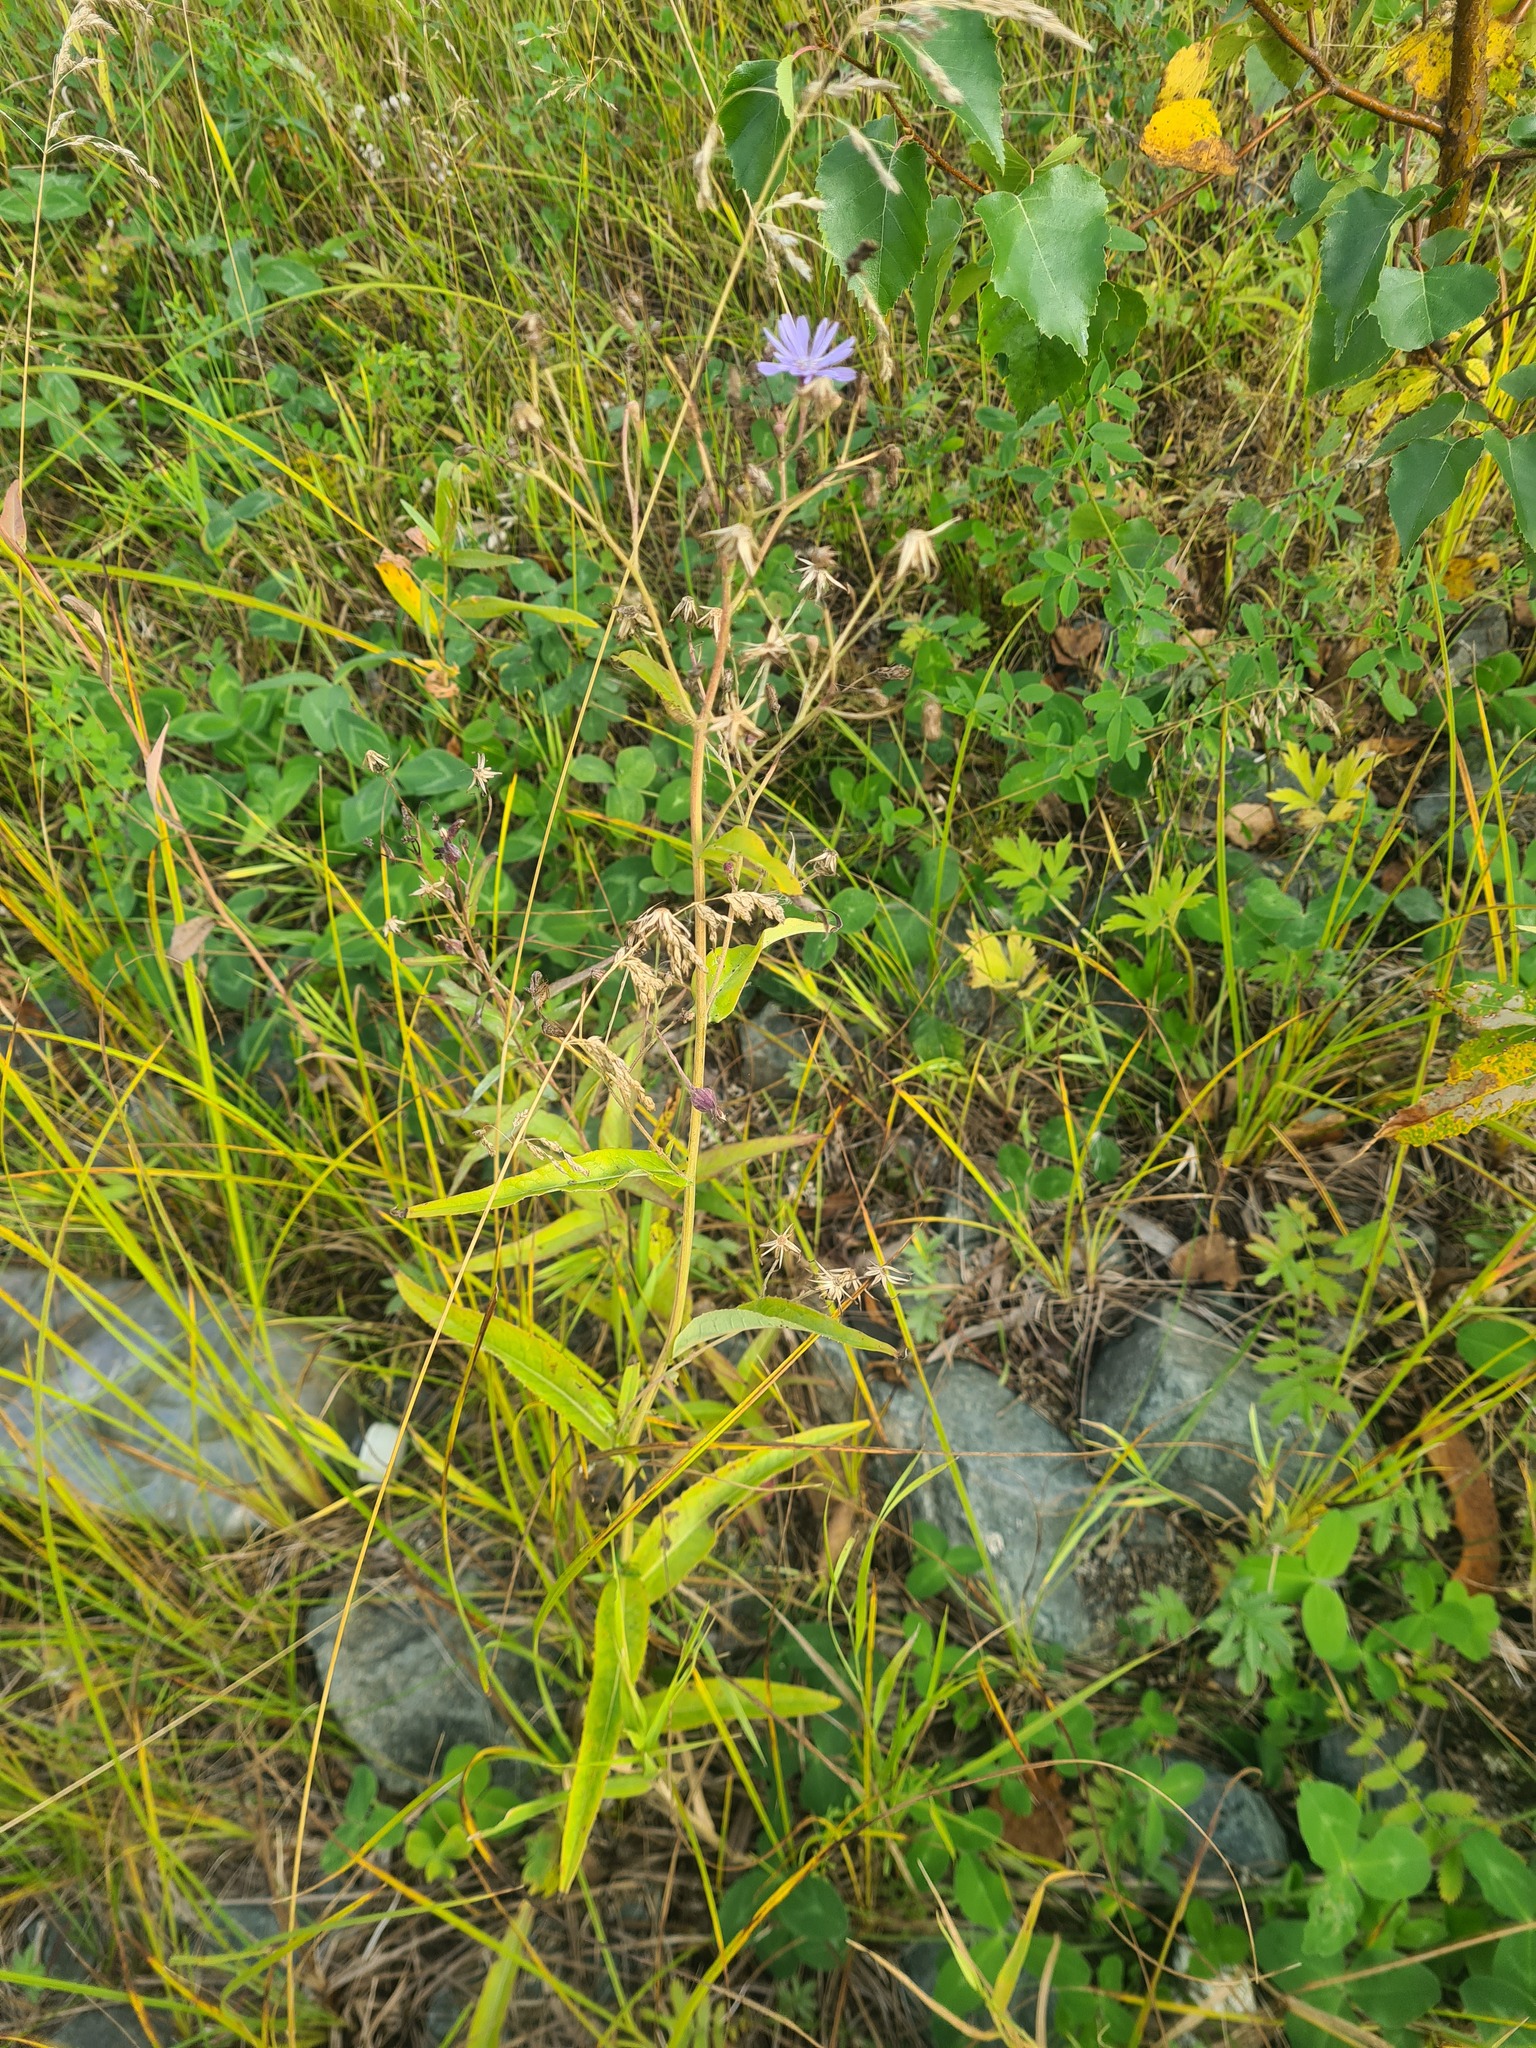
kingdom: Plantae
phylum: Tracheophyta
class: Magnoliopsida
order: Asterales
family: Asteraceae
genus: Lactuca
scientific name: Lactuca sibirica
